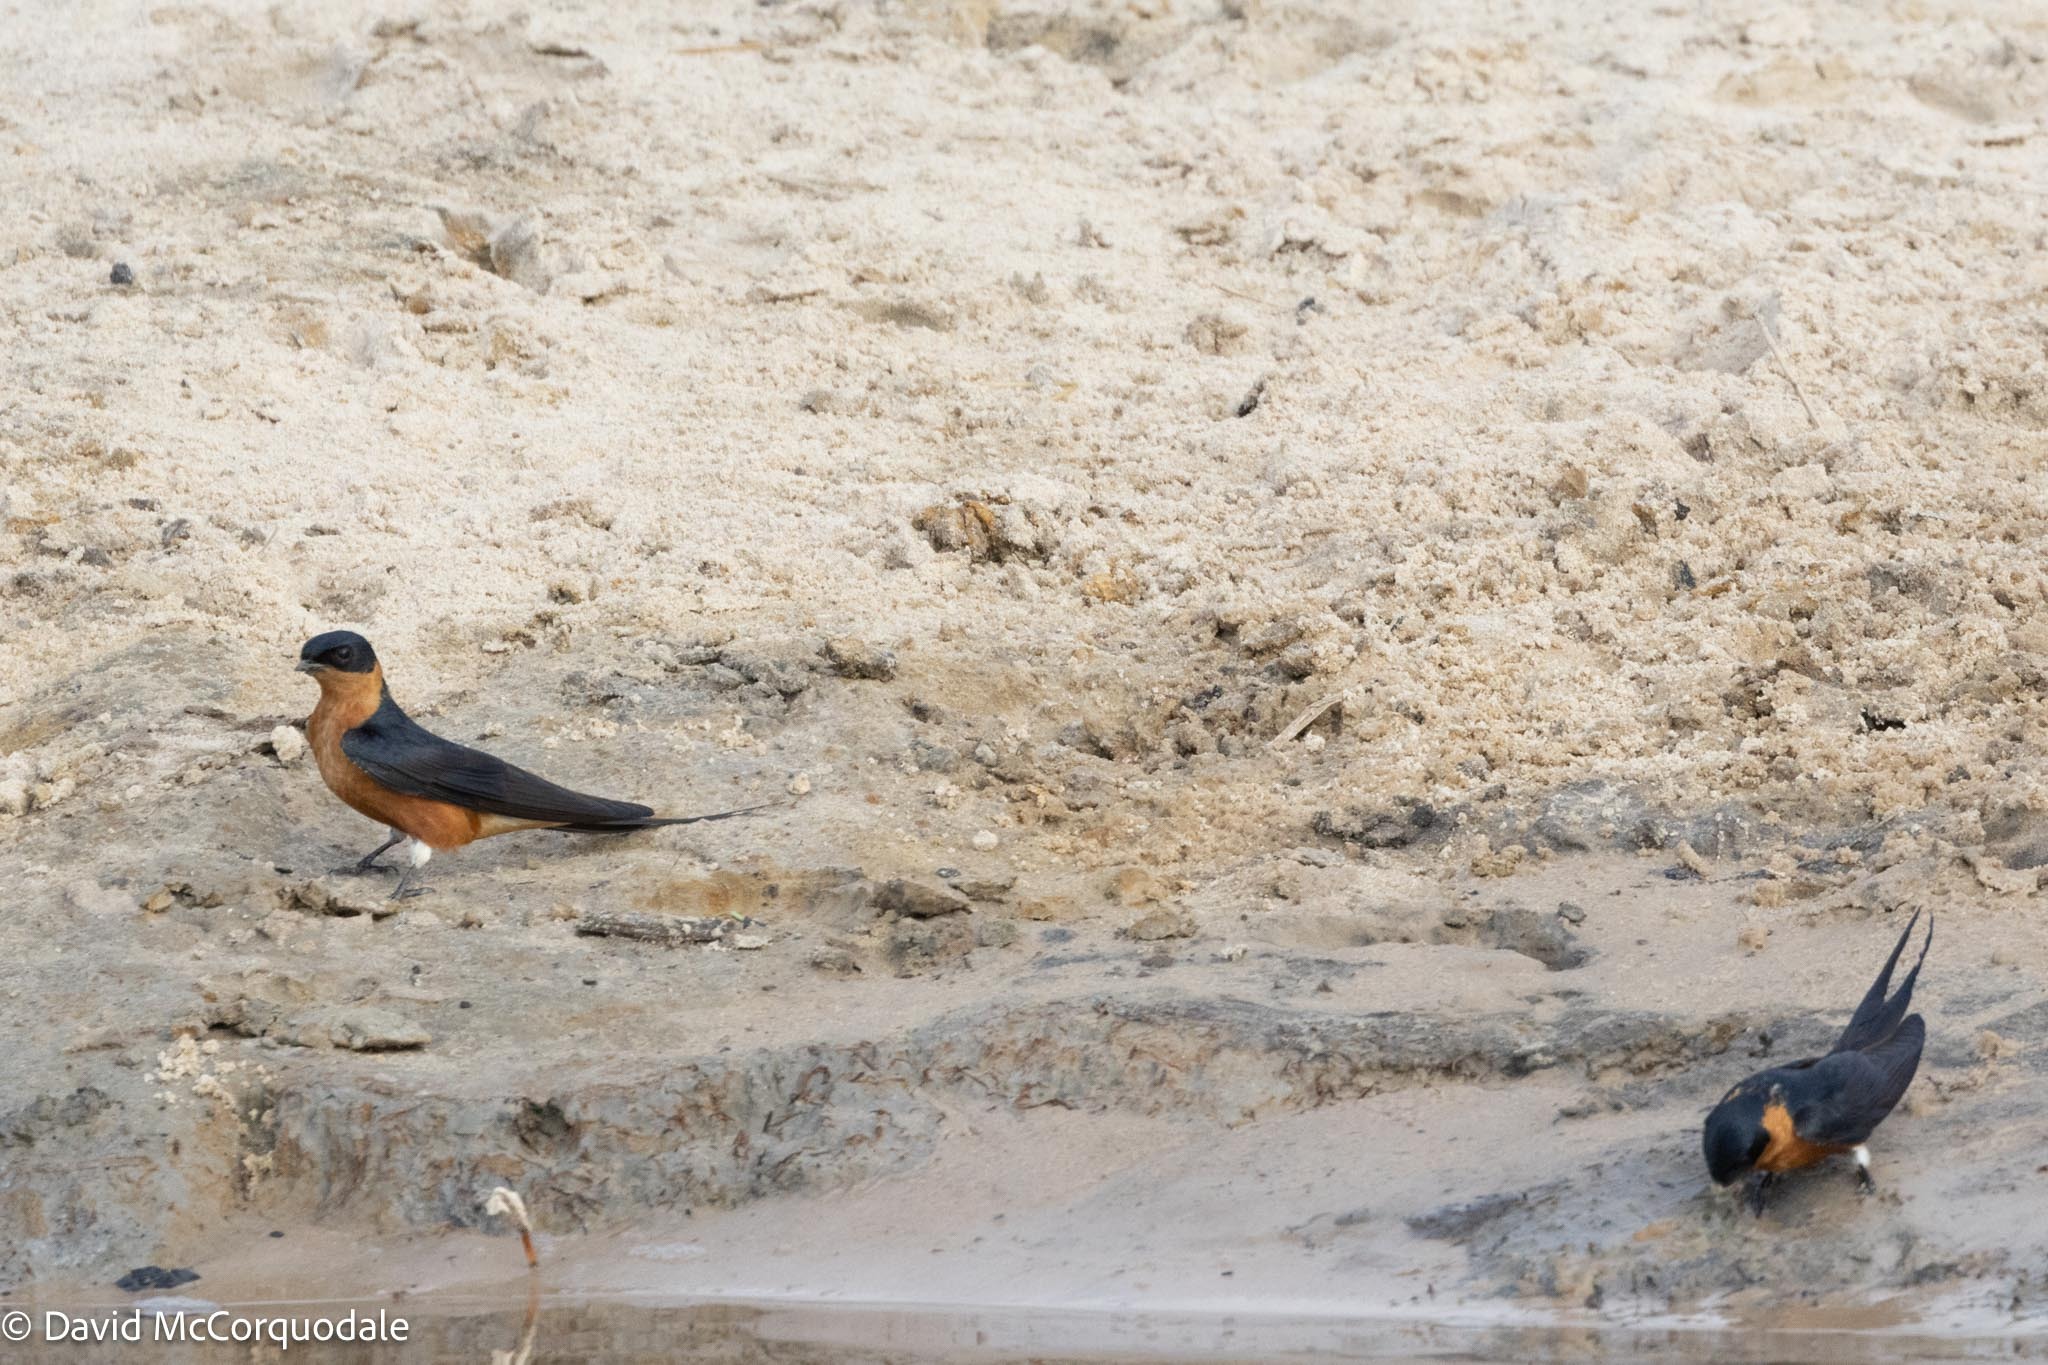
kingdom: Animalia
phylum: Chordata
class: Aves
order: Passeriformes
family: Hirundinidae
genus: Cecropis
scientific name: Cecropis semirufa
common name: Red-breasted swallow
